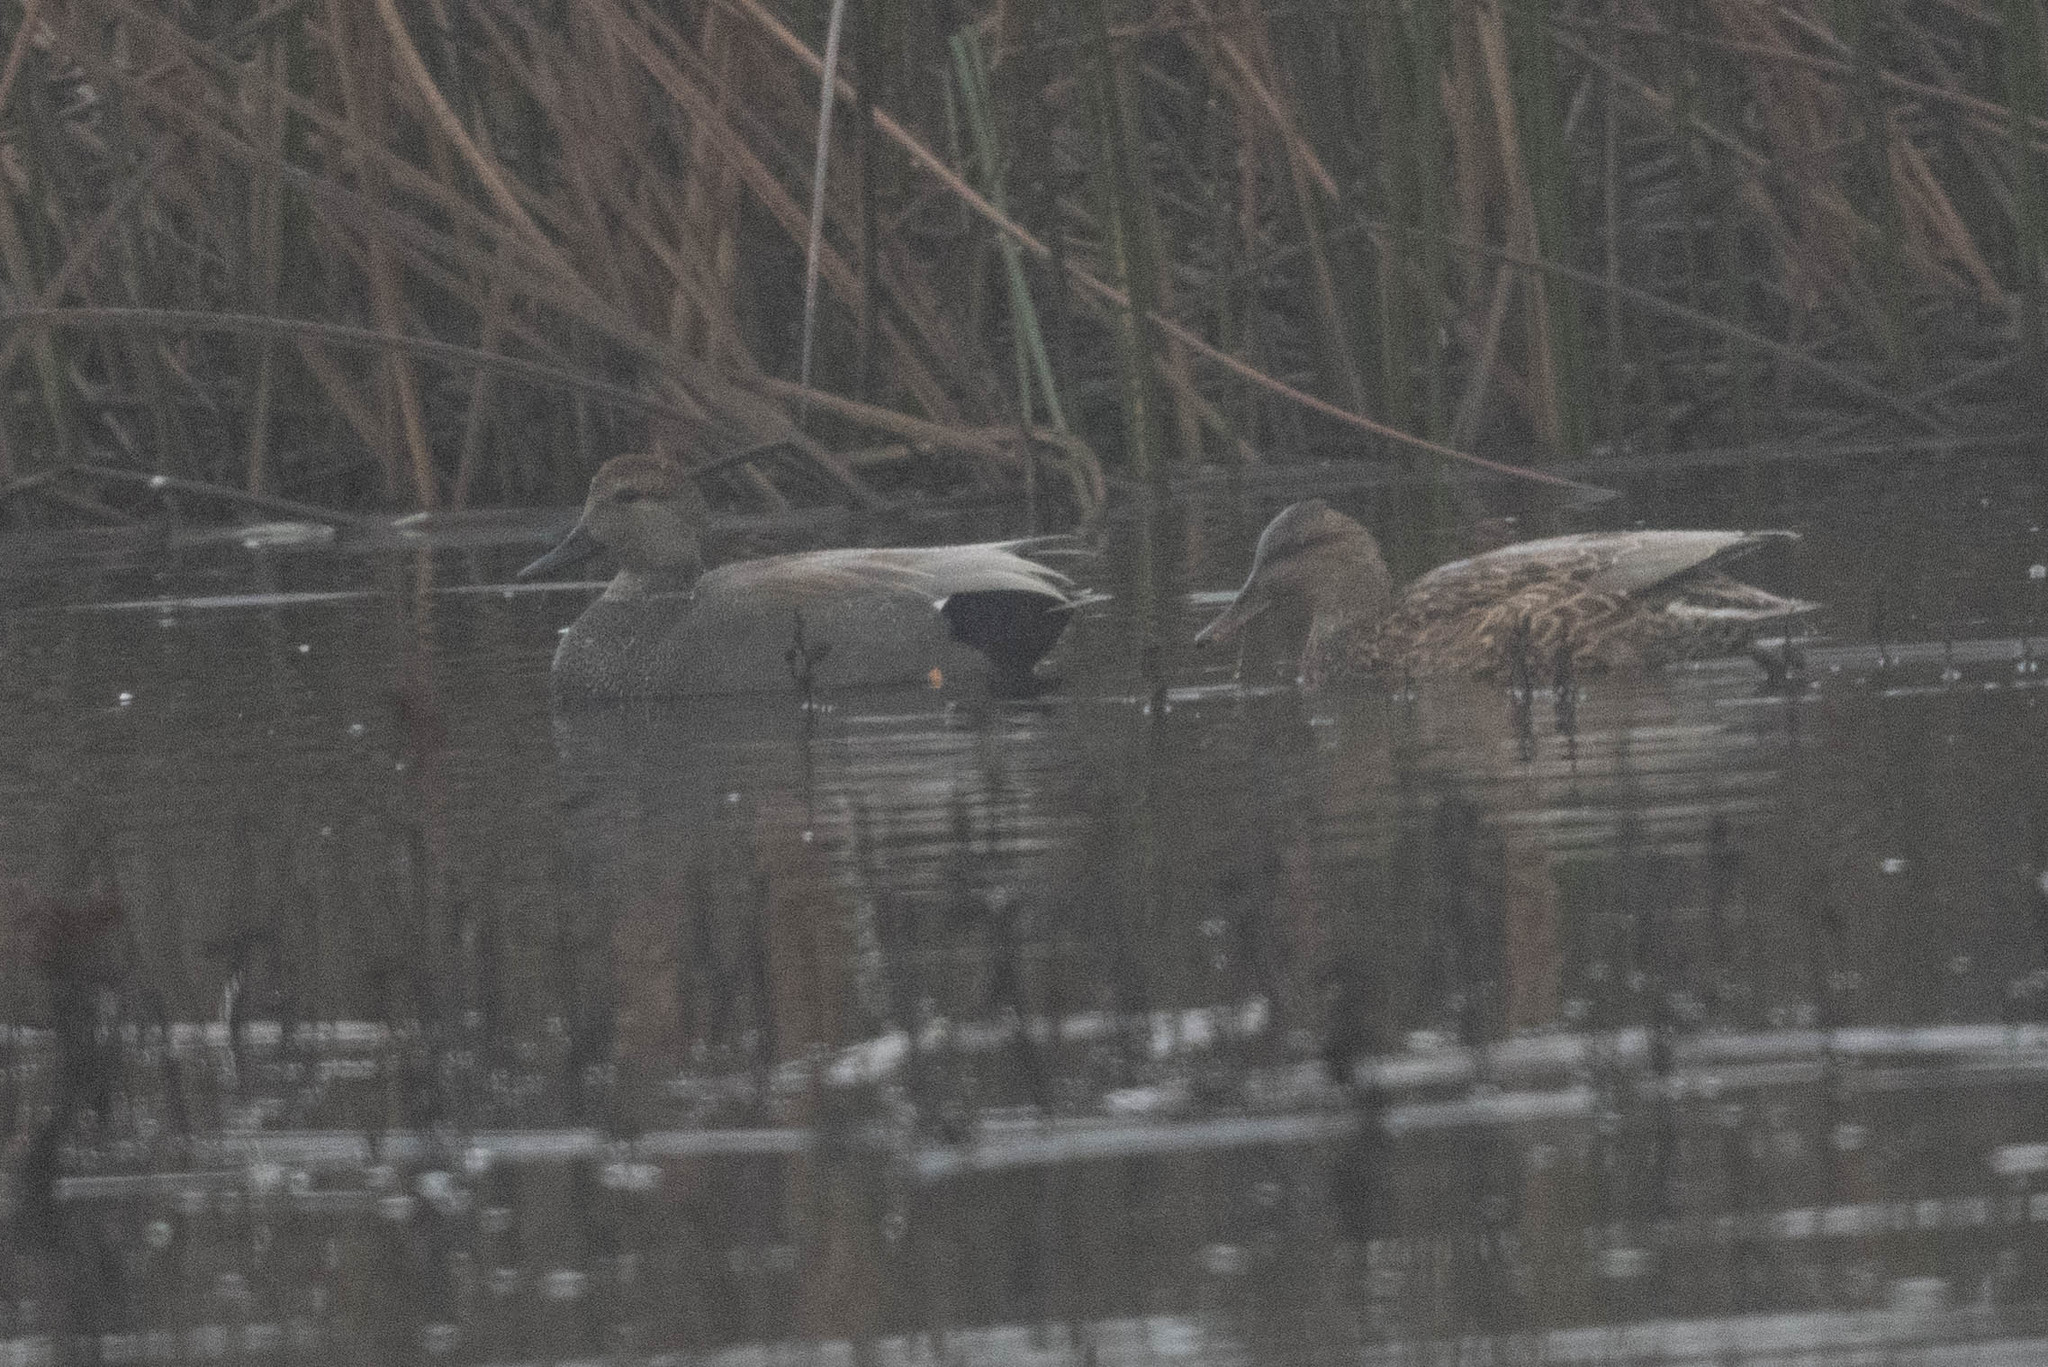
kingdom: Animalia
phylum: Chordata
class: Aves
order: Anseriformes
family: Anatidae
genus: Mareca
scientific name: Mareca strepera
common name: Gadwall
